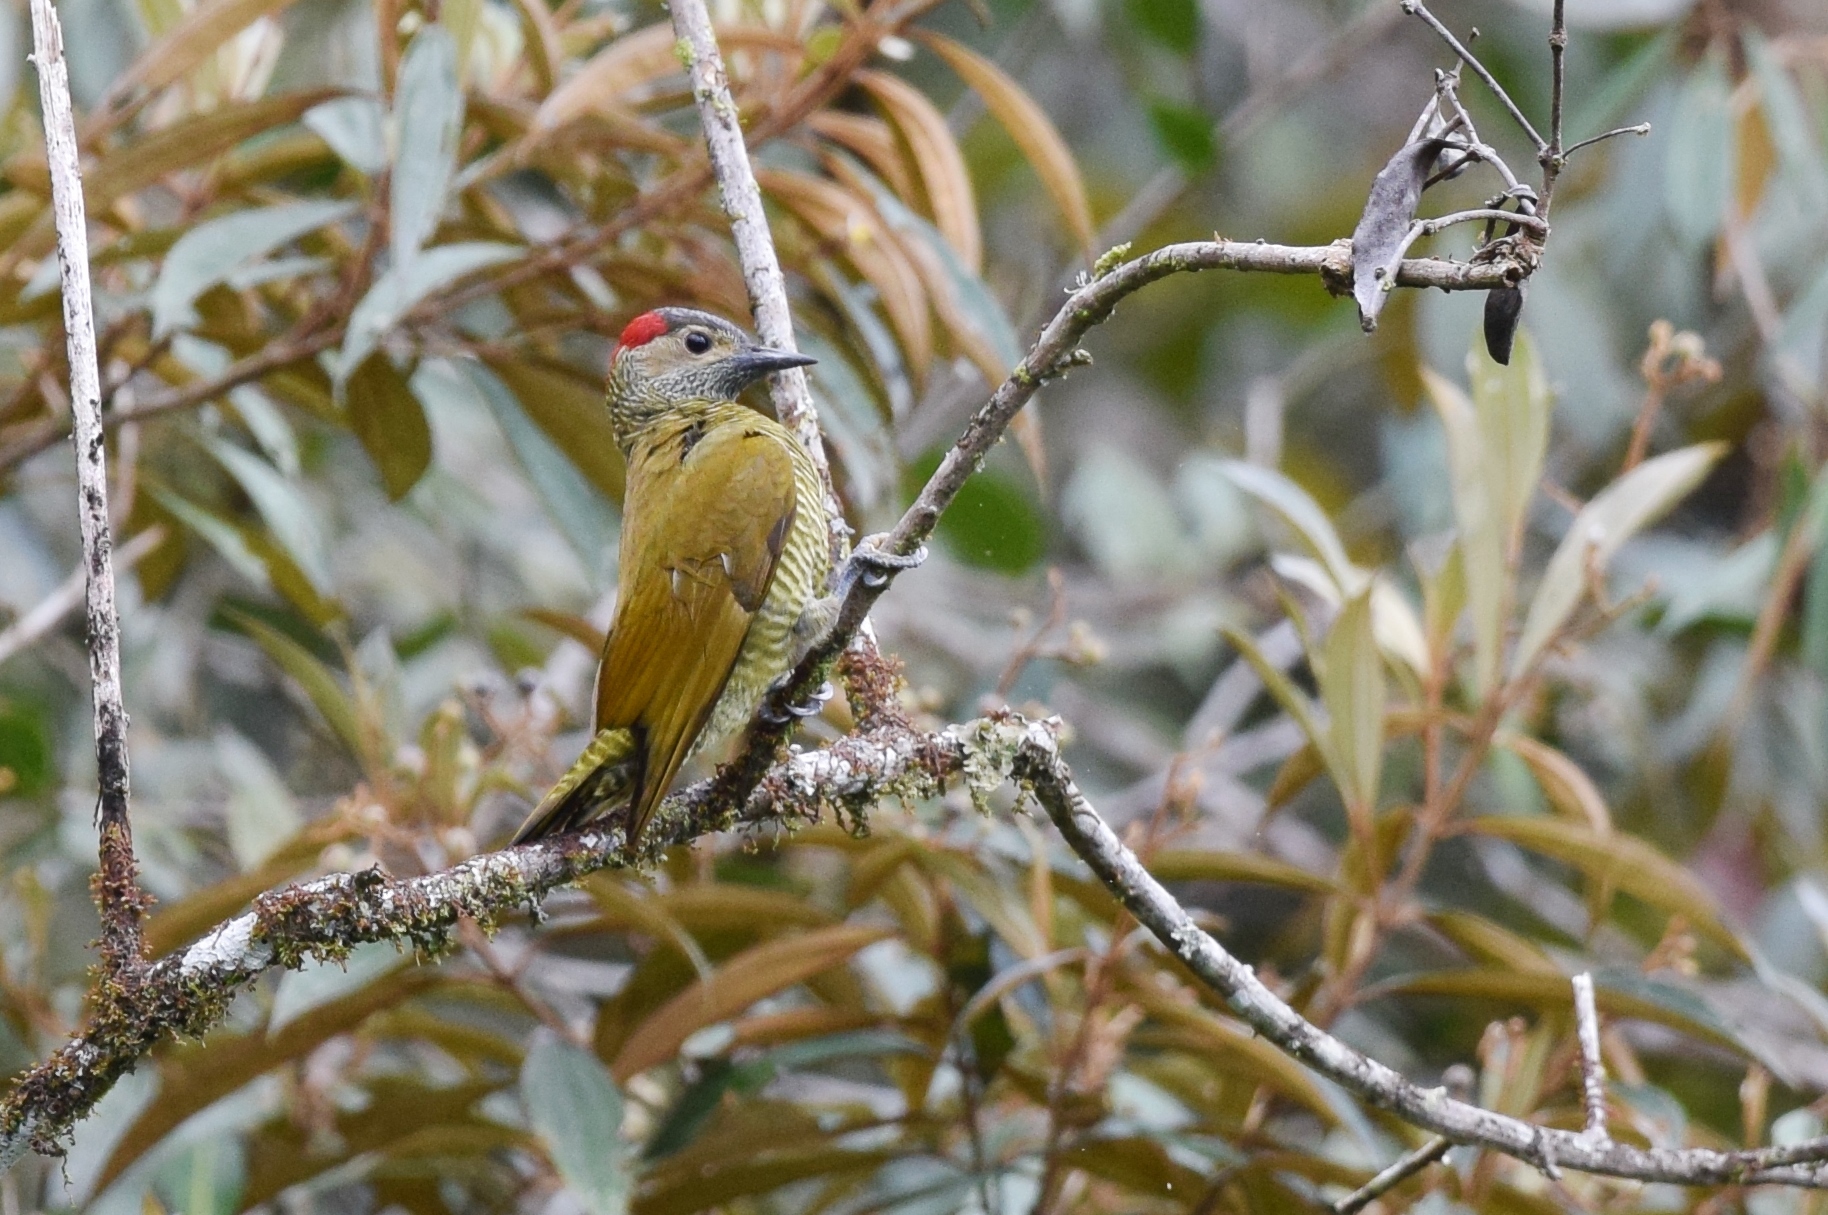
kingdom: Animalia
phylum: Chordata
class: Aves
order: Piciformes
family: Picidae
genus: Colaptes
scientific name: Colaptes rubiginosus
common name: Golden-olive woodpecker
